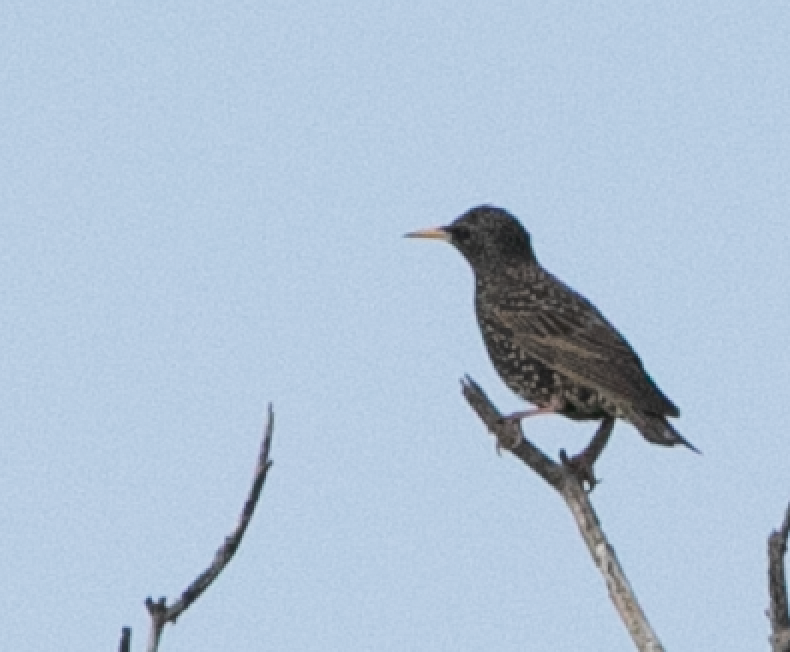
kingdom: Animalia
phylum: Chordata
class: Aves
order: Passeriformes
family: Sturnidae
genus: Sturnus
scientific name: Sturnus vulgaris
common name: Common starling
